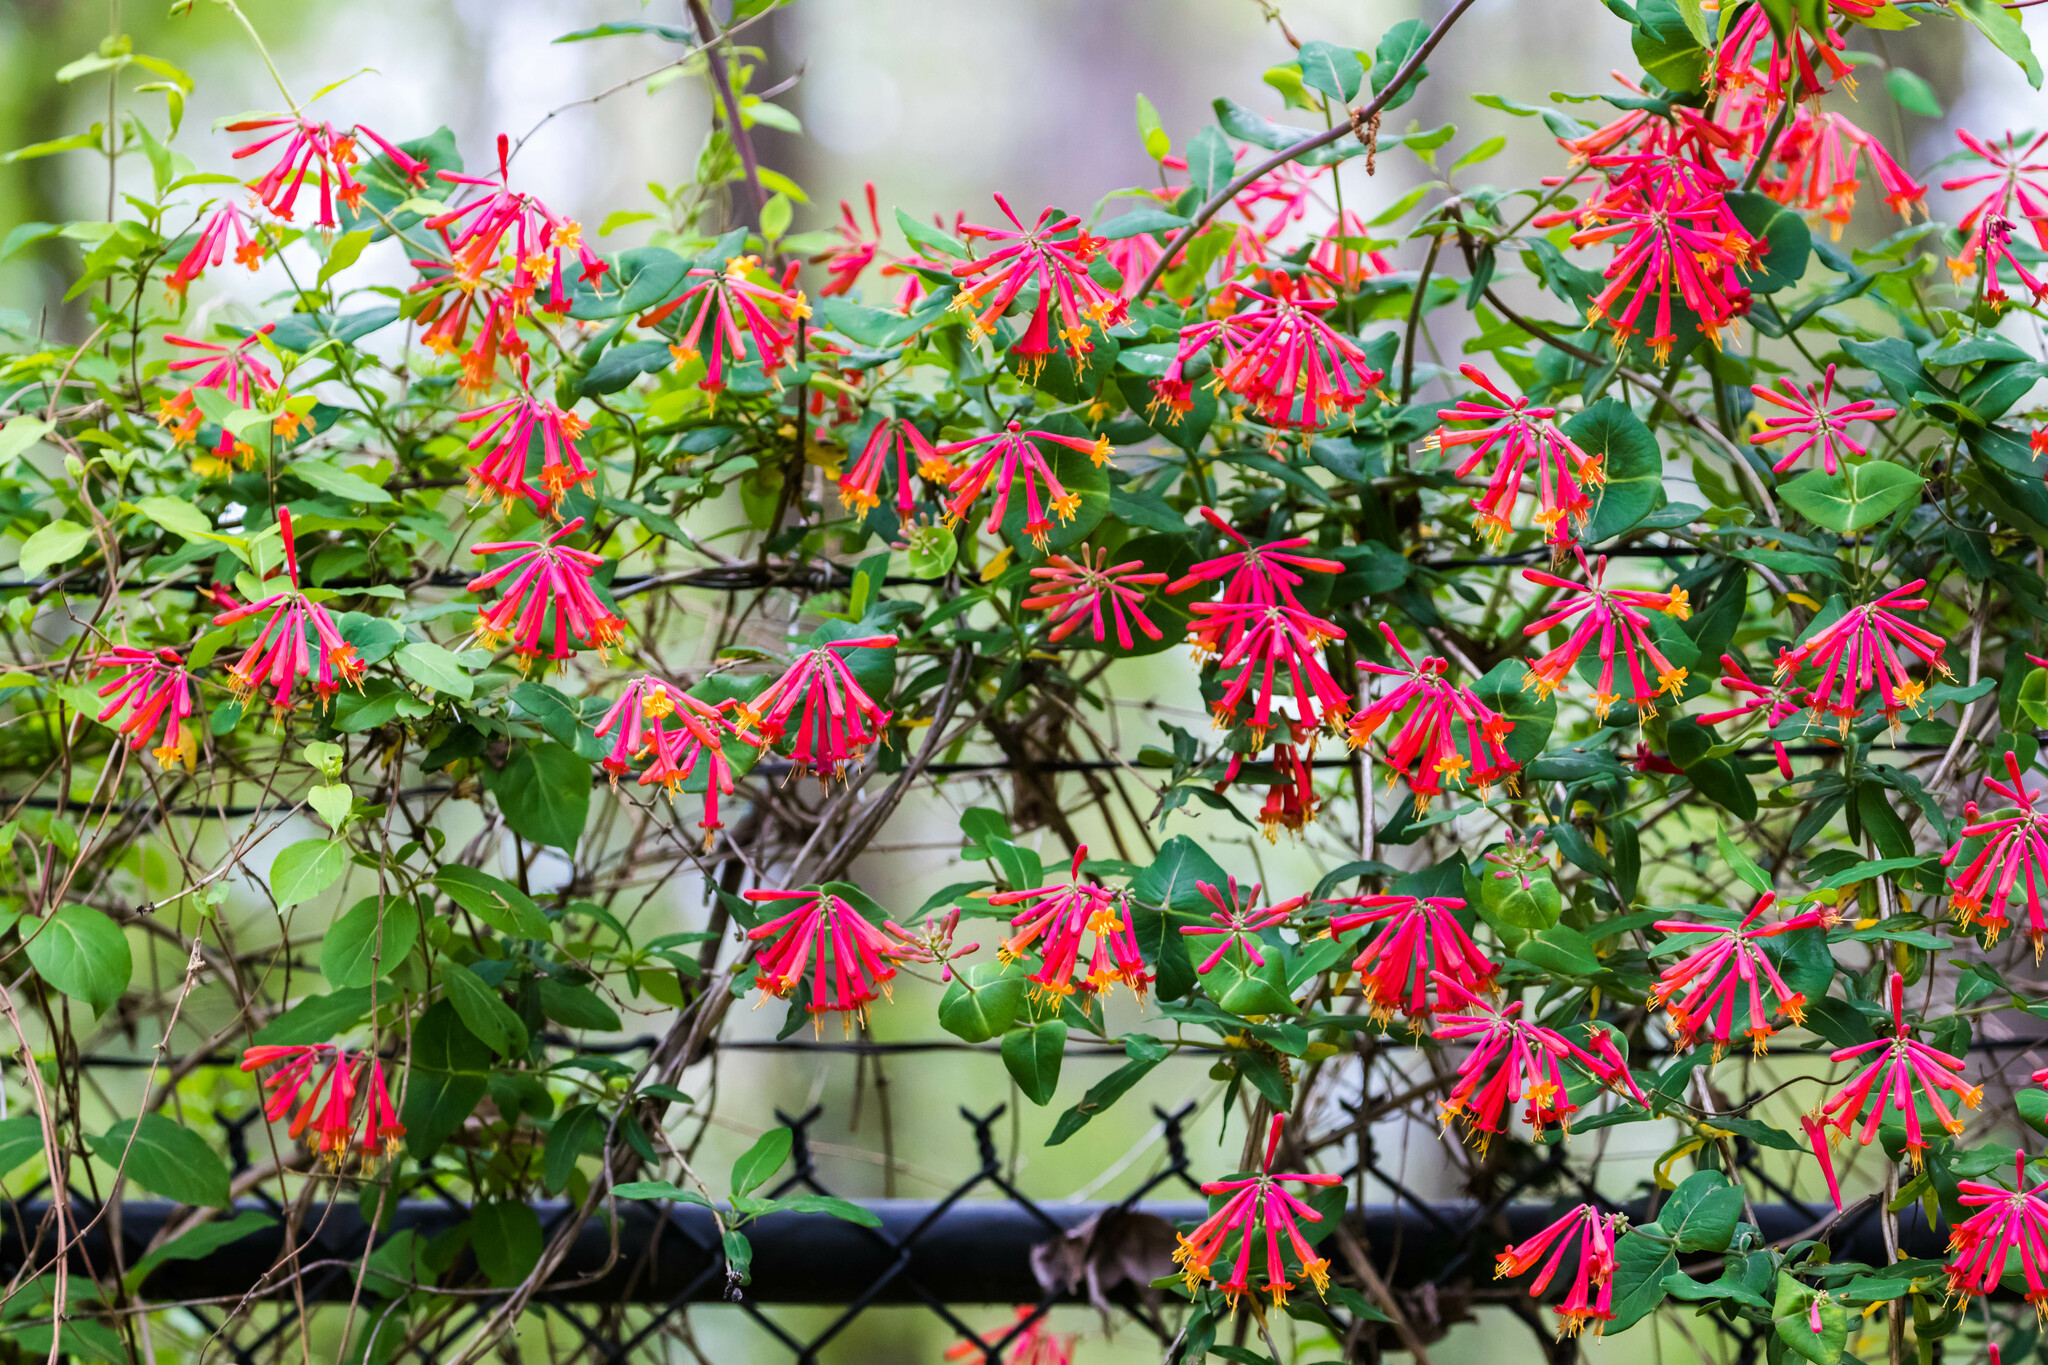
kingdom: Plantae
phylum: Tracheophyta
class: Magnoliopsida
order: Dipsacales
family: Caprifoliaceae
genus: Lonicera
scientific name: Lonicera sempervirens
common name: Coral honeysuckle
